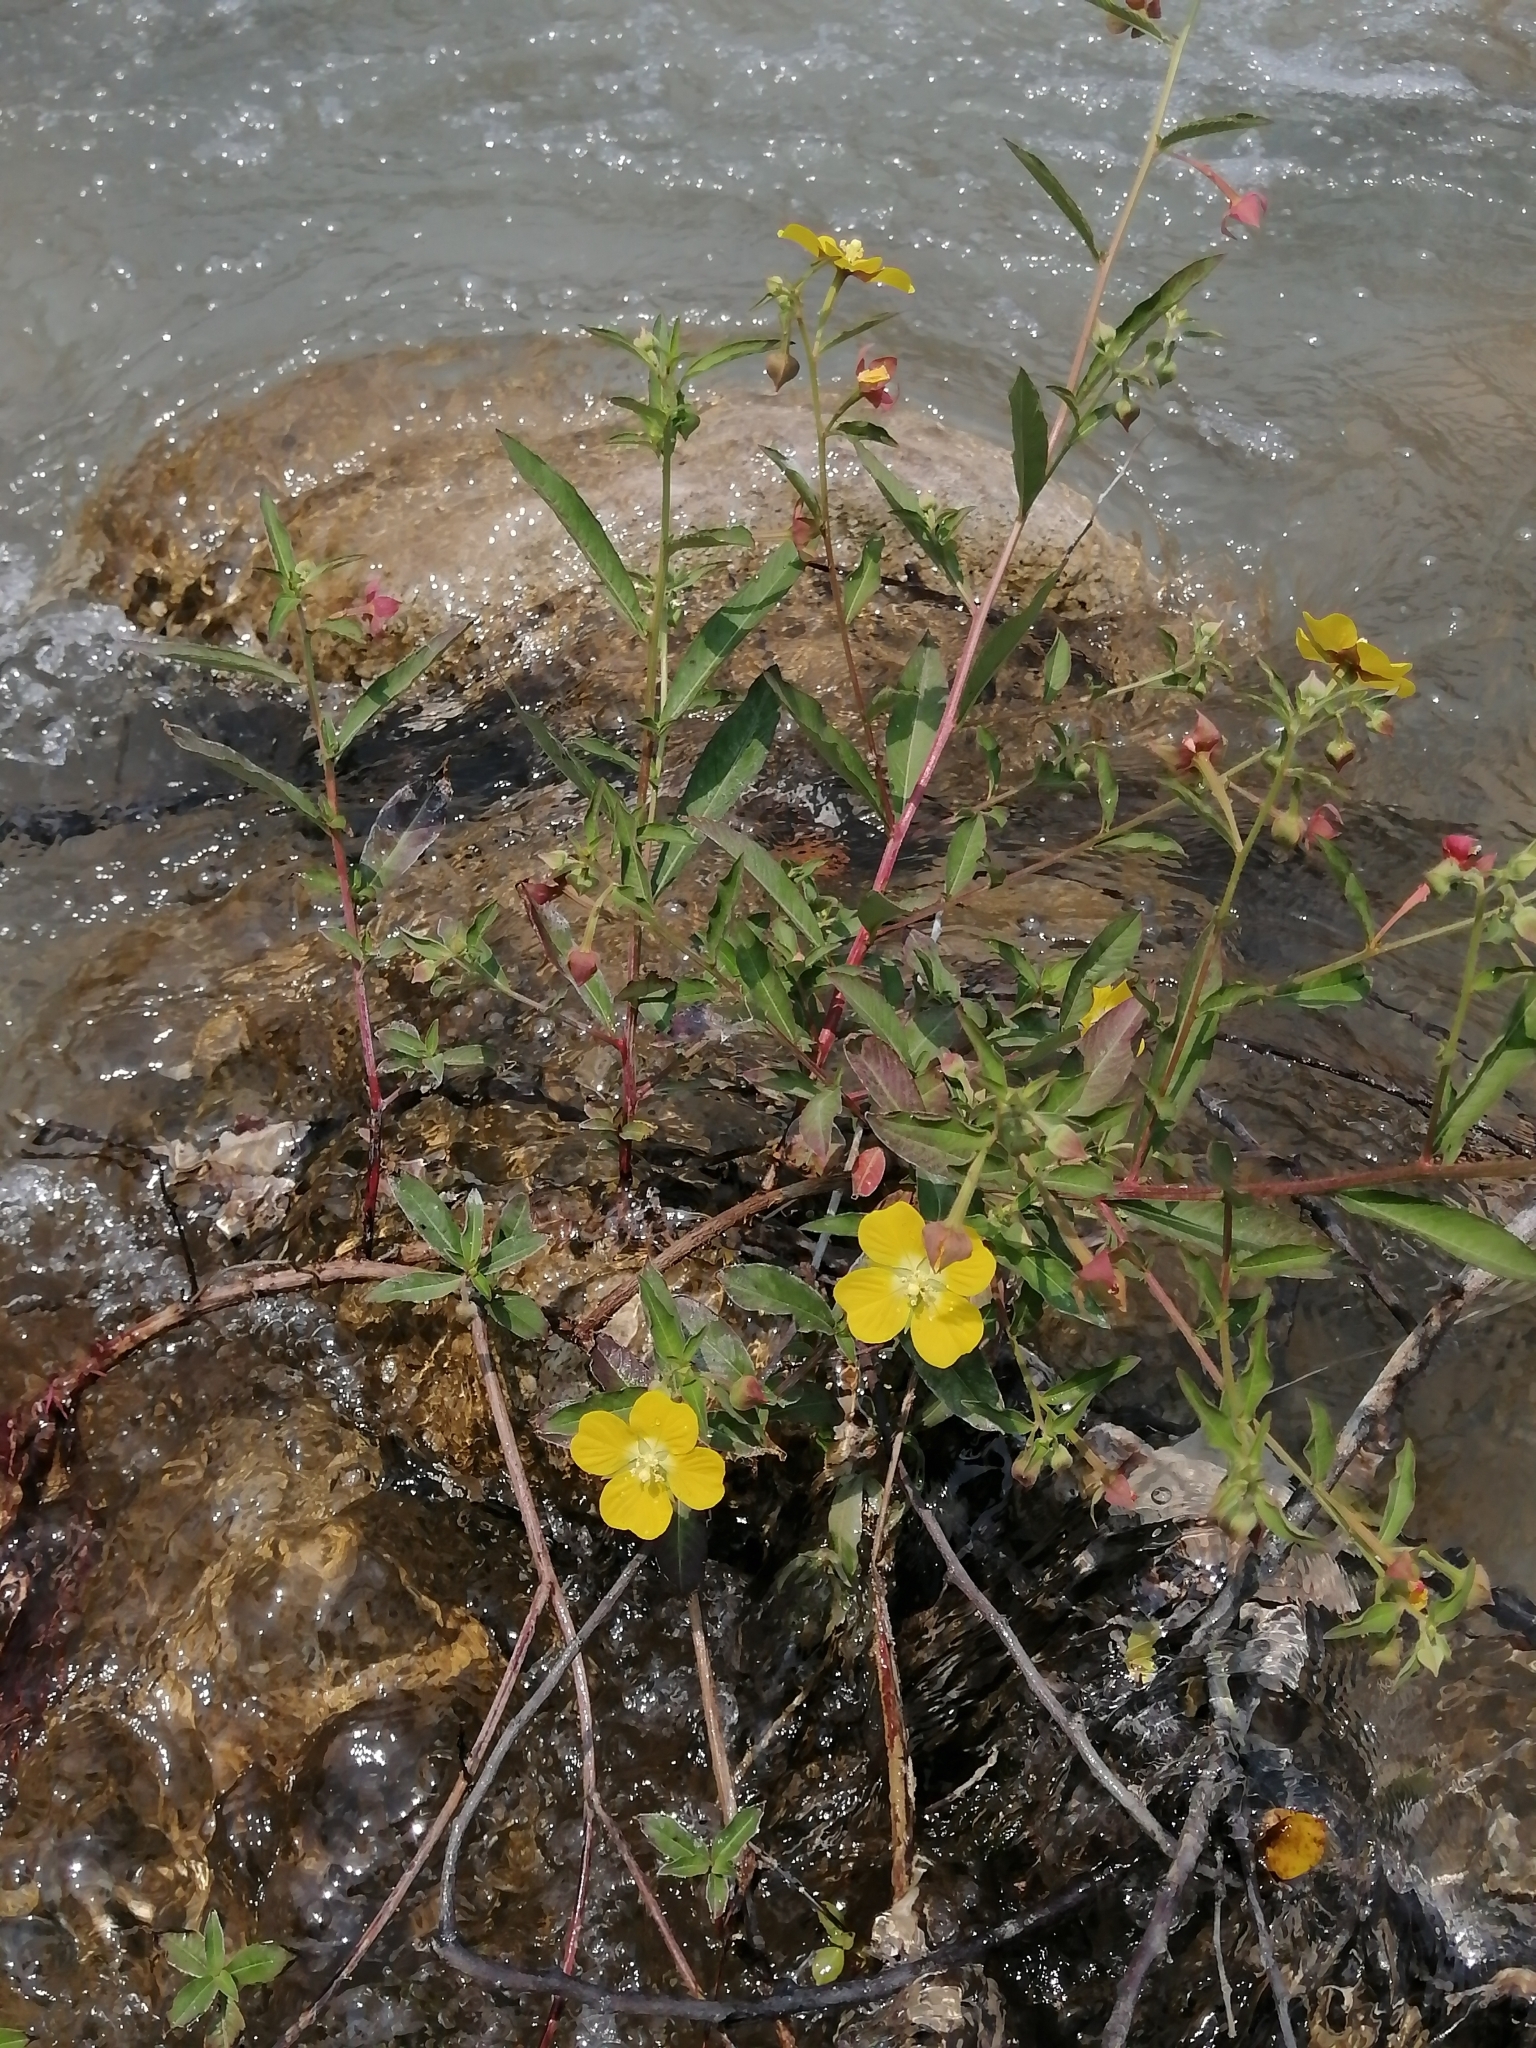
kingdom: Plantae
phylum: Tracheophyta
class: Magnoliopsida
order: Myrtales
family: Onagraceae
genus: Ludwigia
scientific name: Ludwigia octovalvis
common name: Water-primrose
